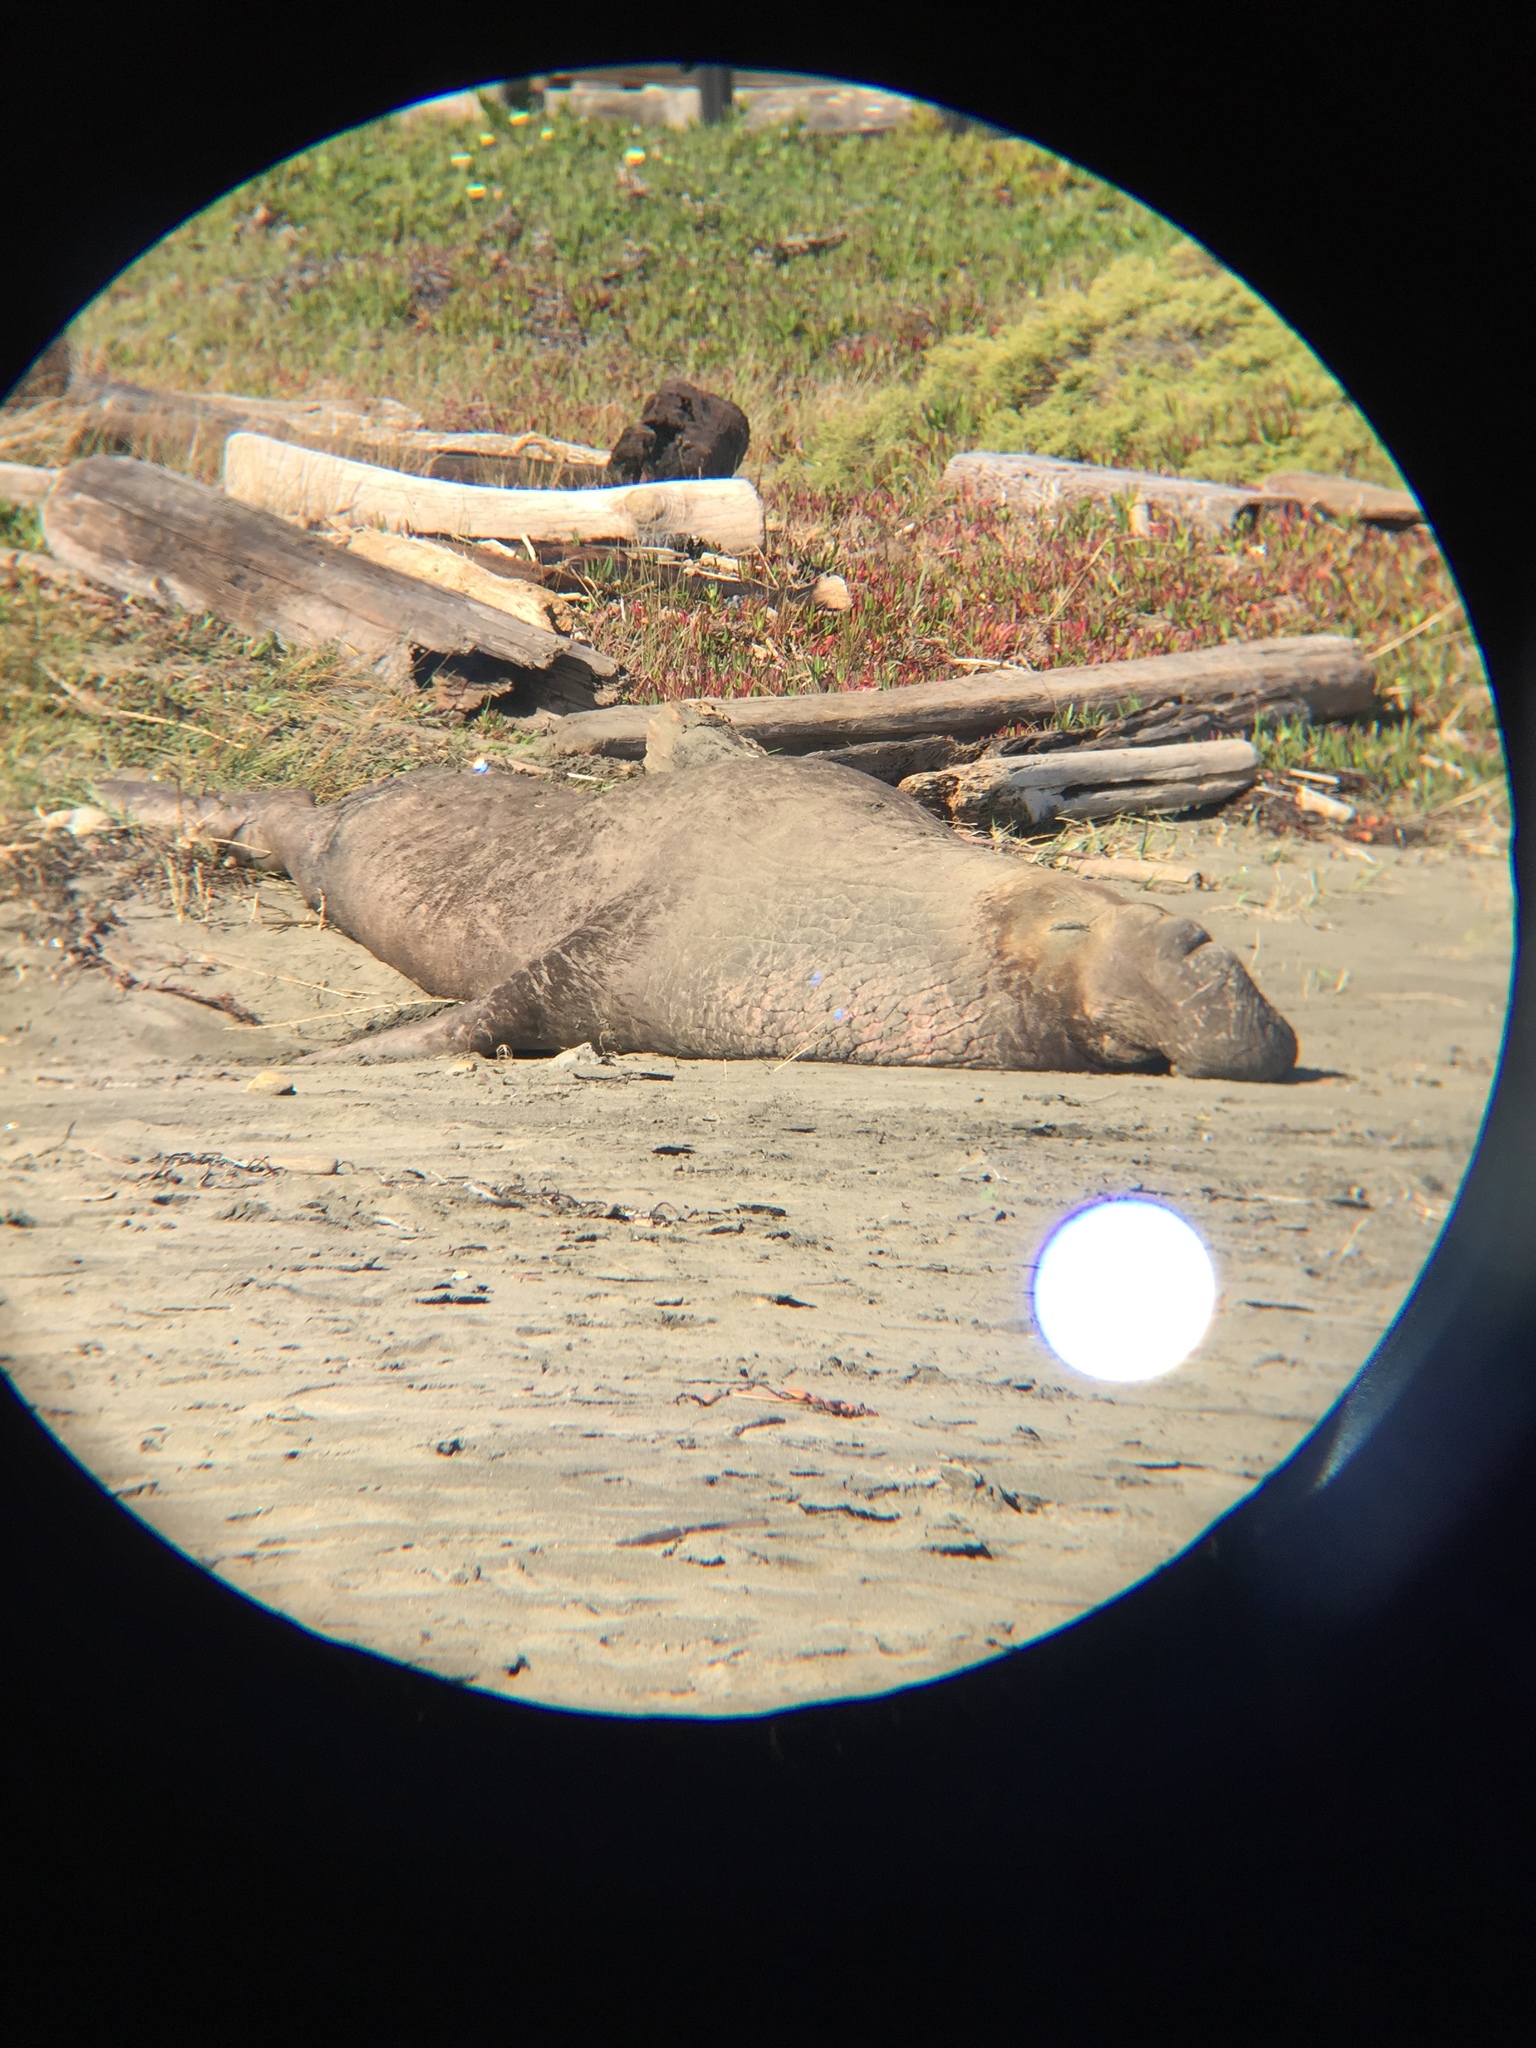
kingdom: Animalia
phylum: Chordata
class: Mammalia
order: Carnivora
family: Phocidae
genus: Mirounga
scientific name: Mirounga angustirostris
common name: Northern elephant seal
